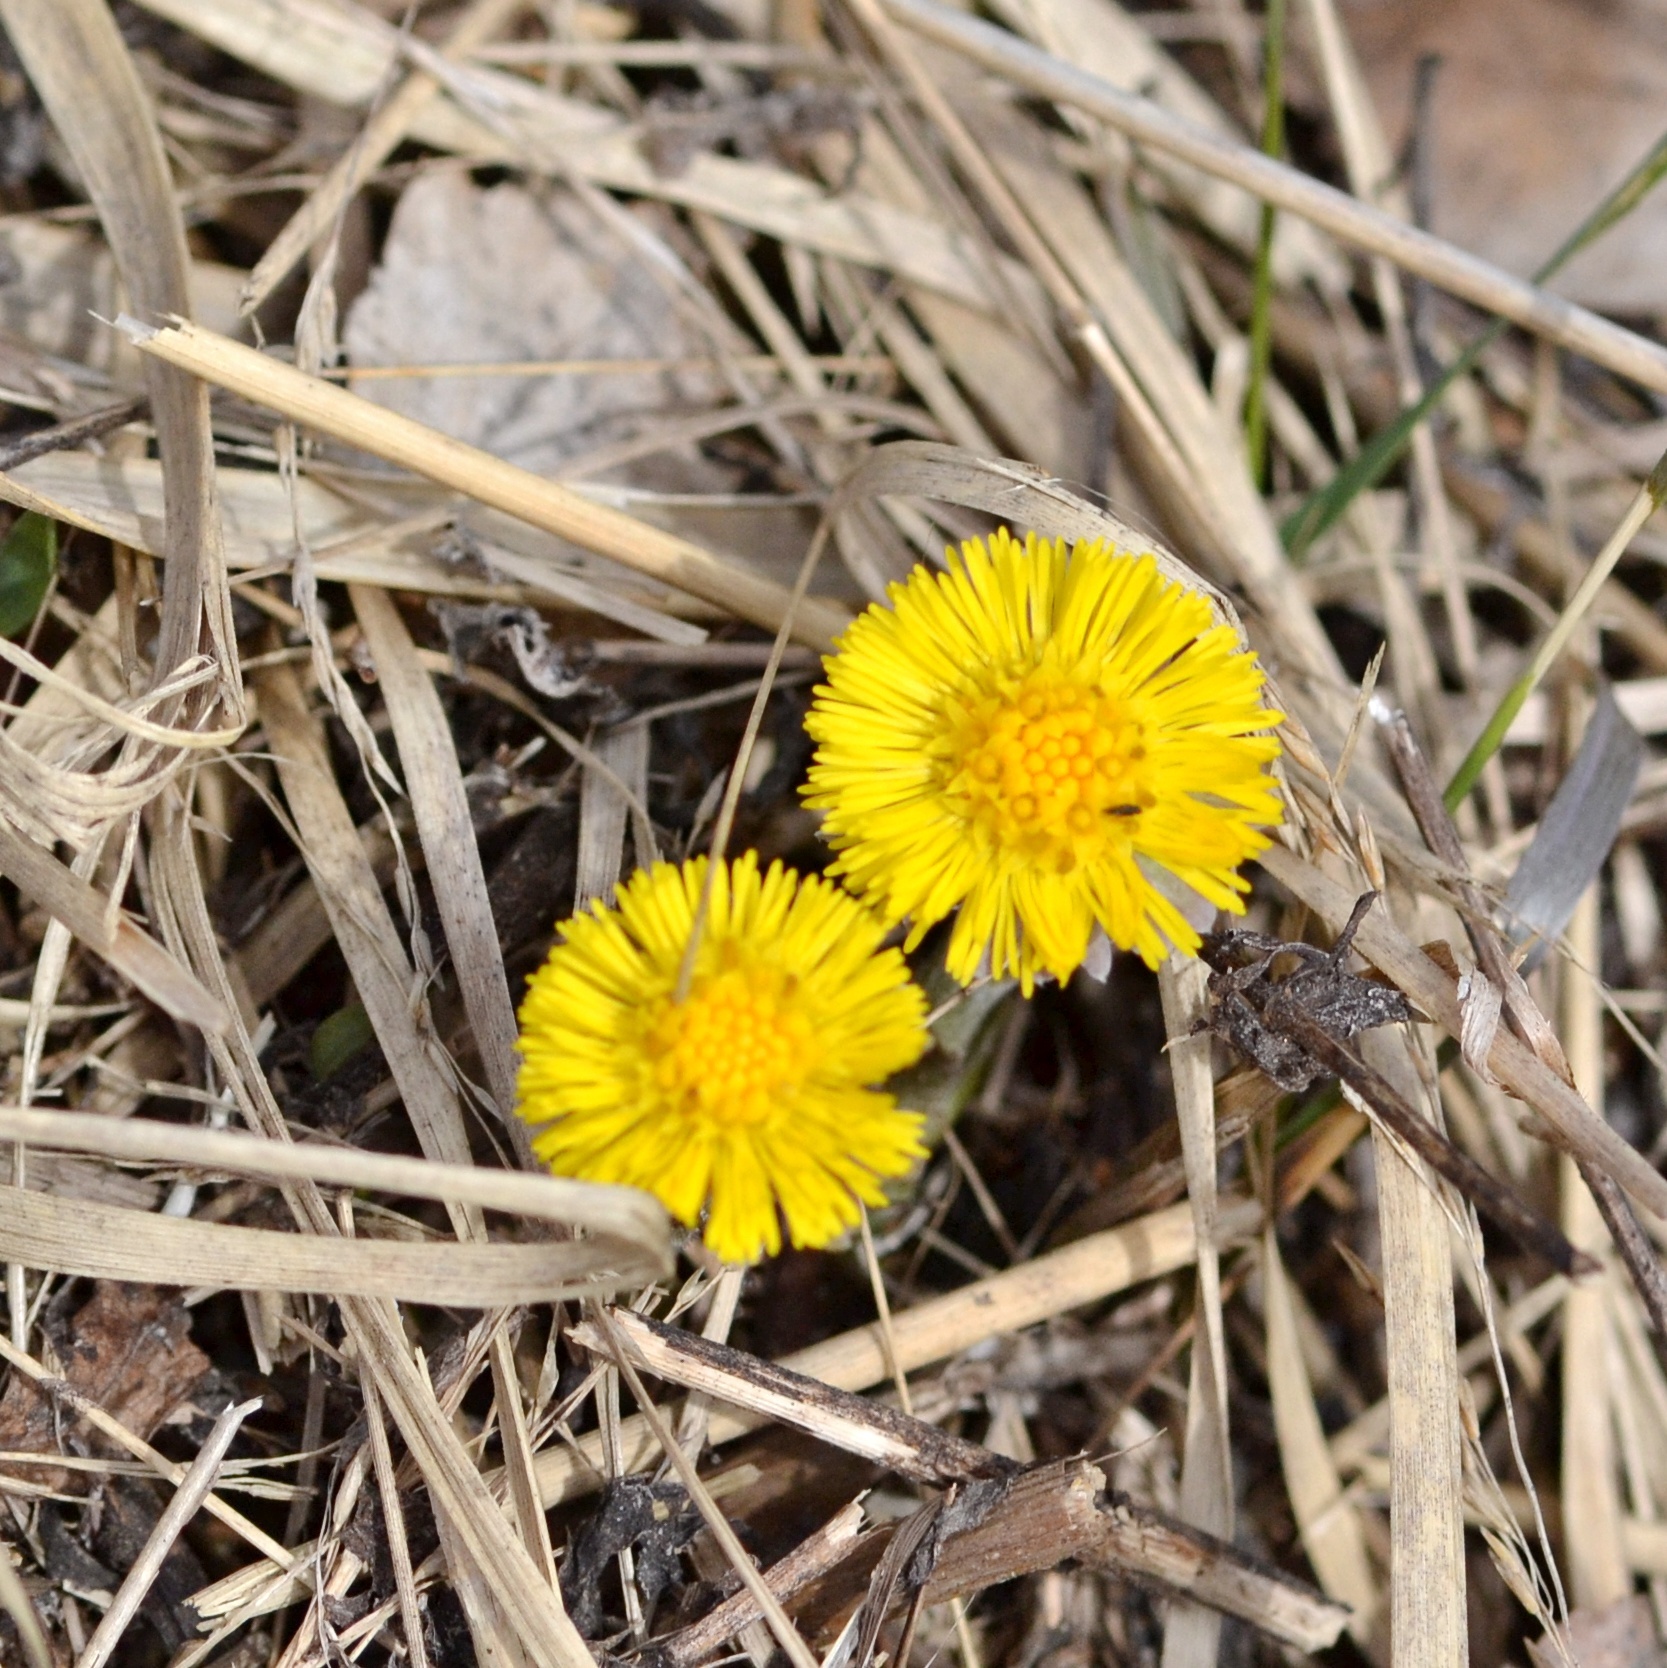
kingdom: Plantae
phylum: Tracheophyta
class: Magnoliopsida
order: Asterales
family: Asteraceae
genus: Tussilago
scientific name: Tussilago farfara
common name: Coltsfoot
